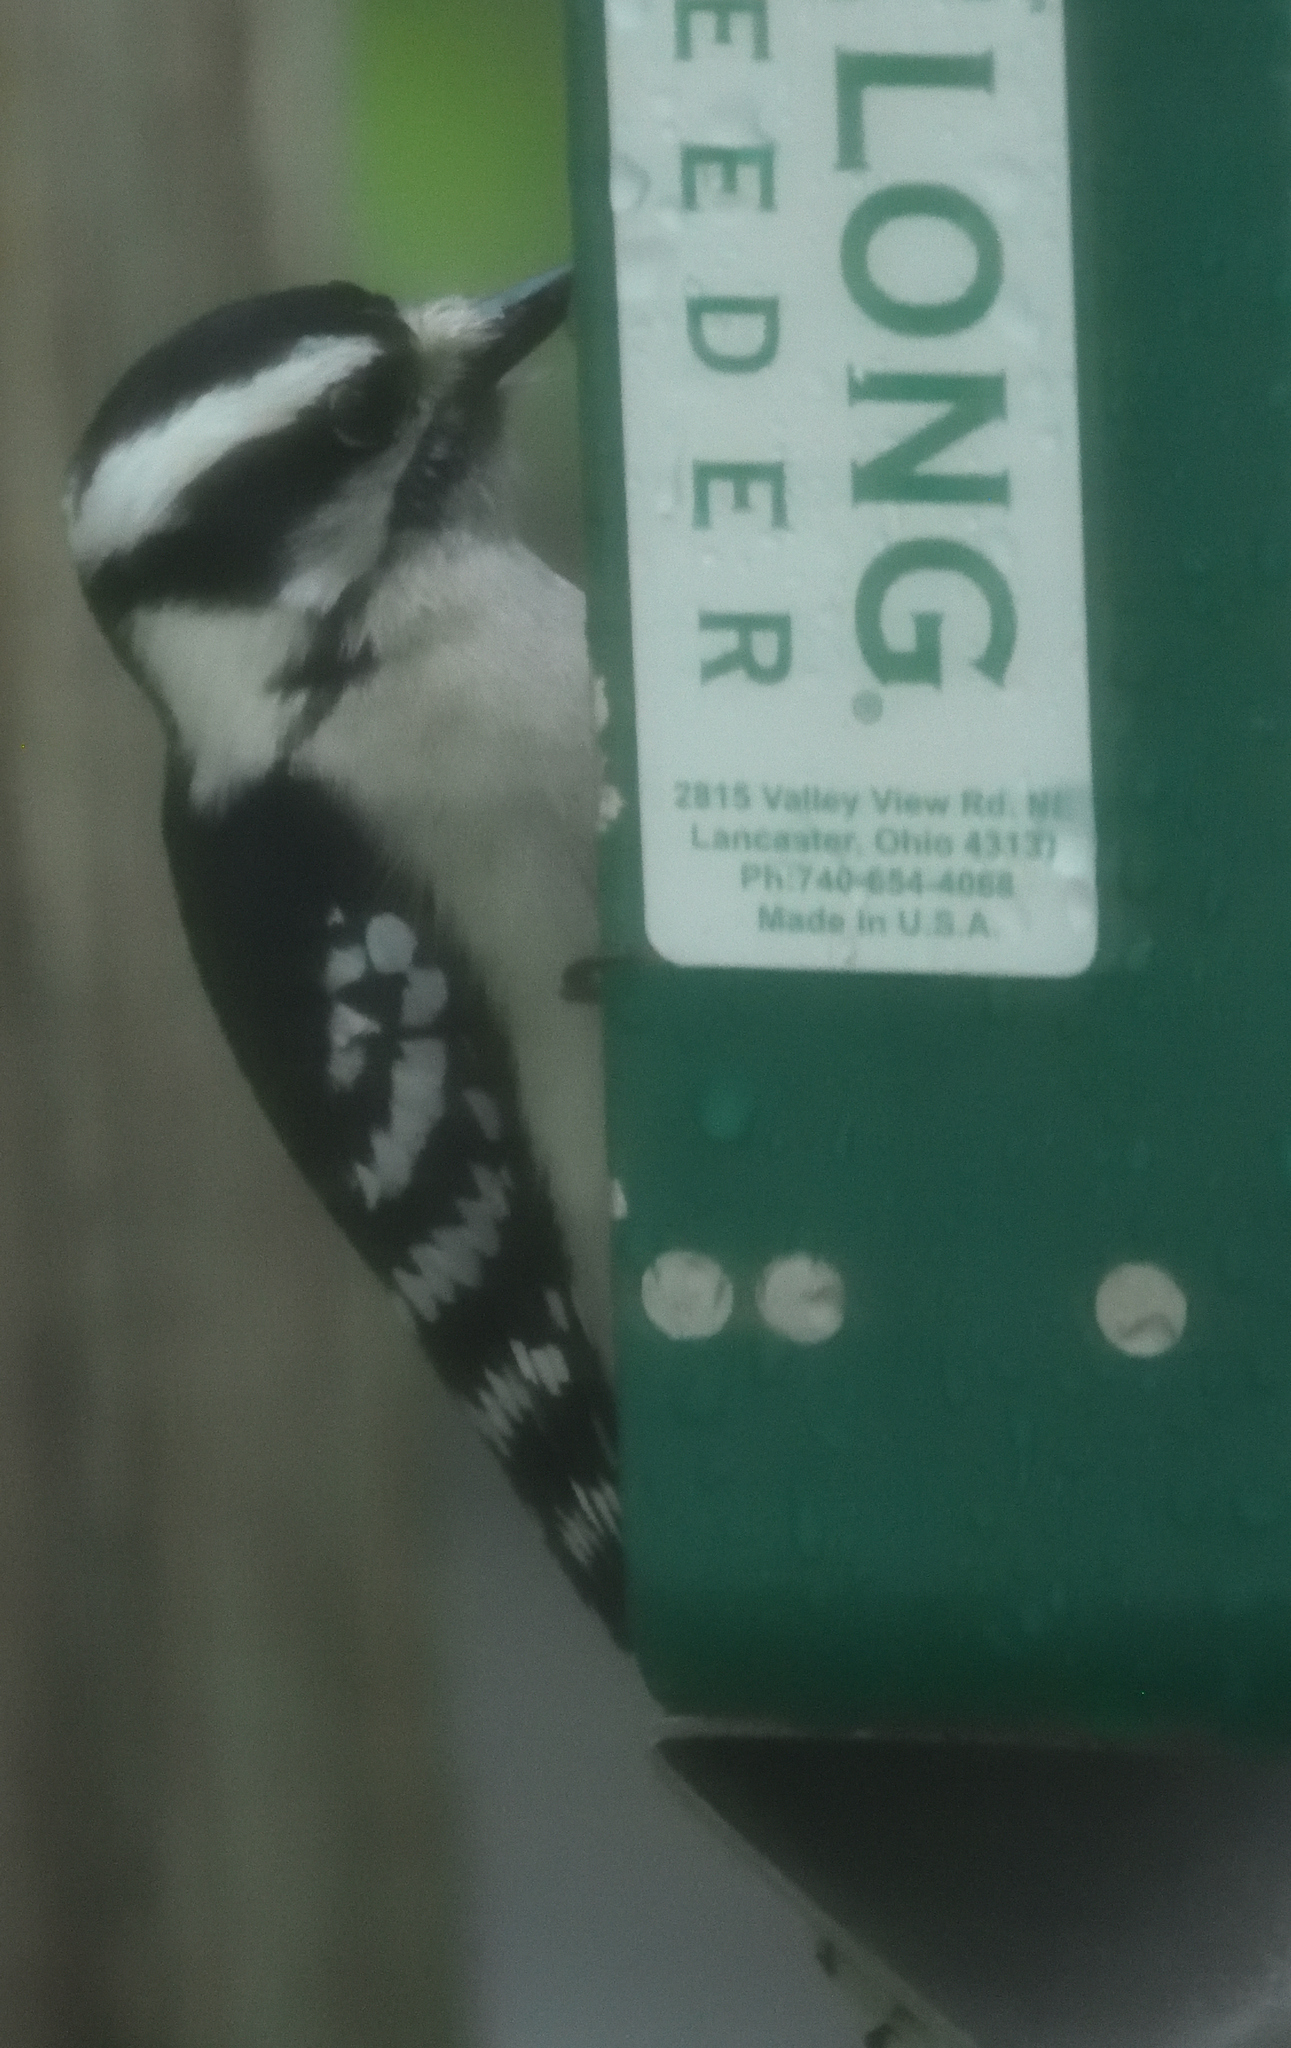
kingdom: Animalia
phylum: Chordata
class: Aves
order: Piciformes
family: Picidae
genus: Dryobates
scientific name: Dryobates pubescens
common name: Downy woodpecker
